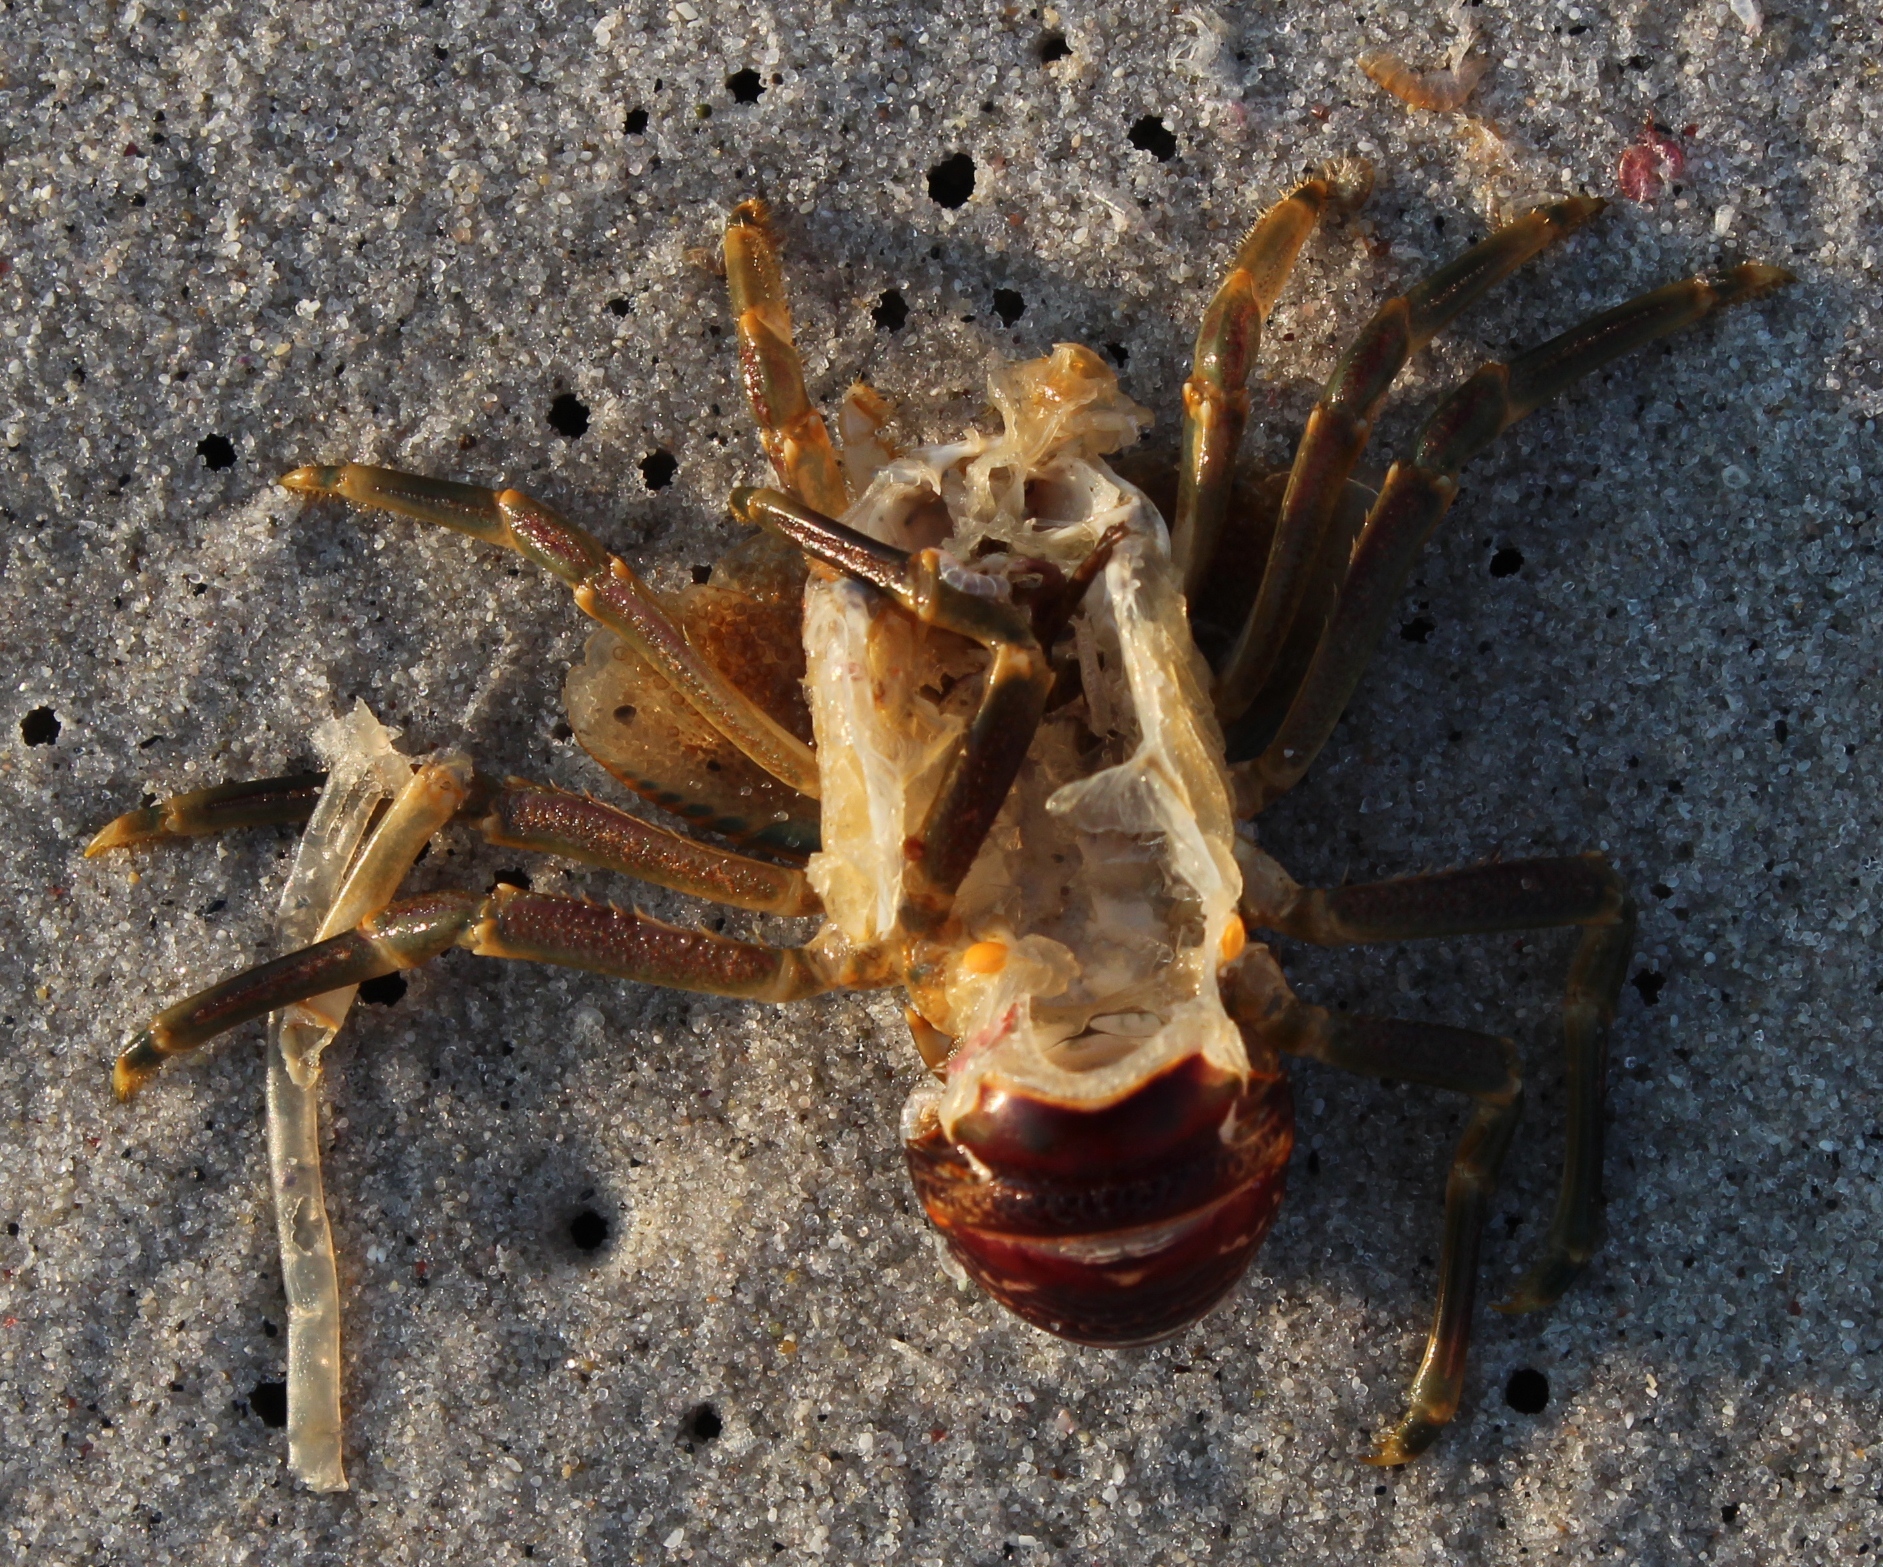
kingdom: Animalia
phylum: Arthropoda
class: Malacostraca
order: Decapoda
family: Palinuridae
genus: Jasus
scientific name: Jasus lalandii
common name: Cape rock lobster
